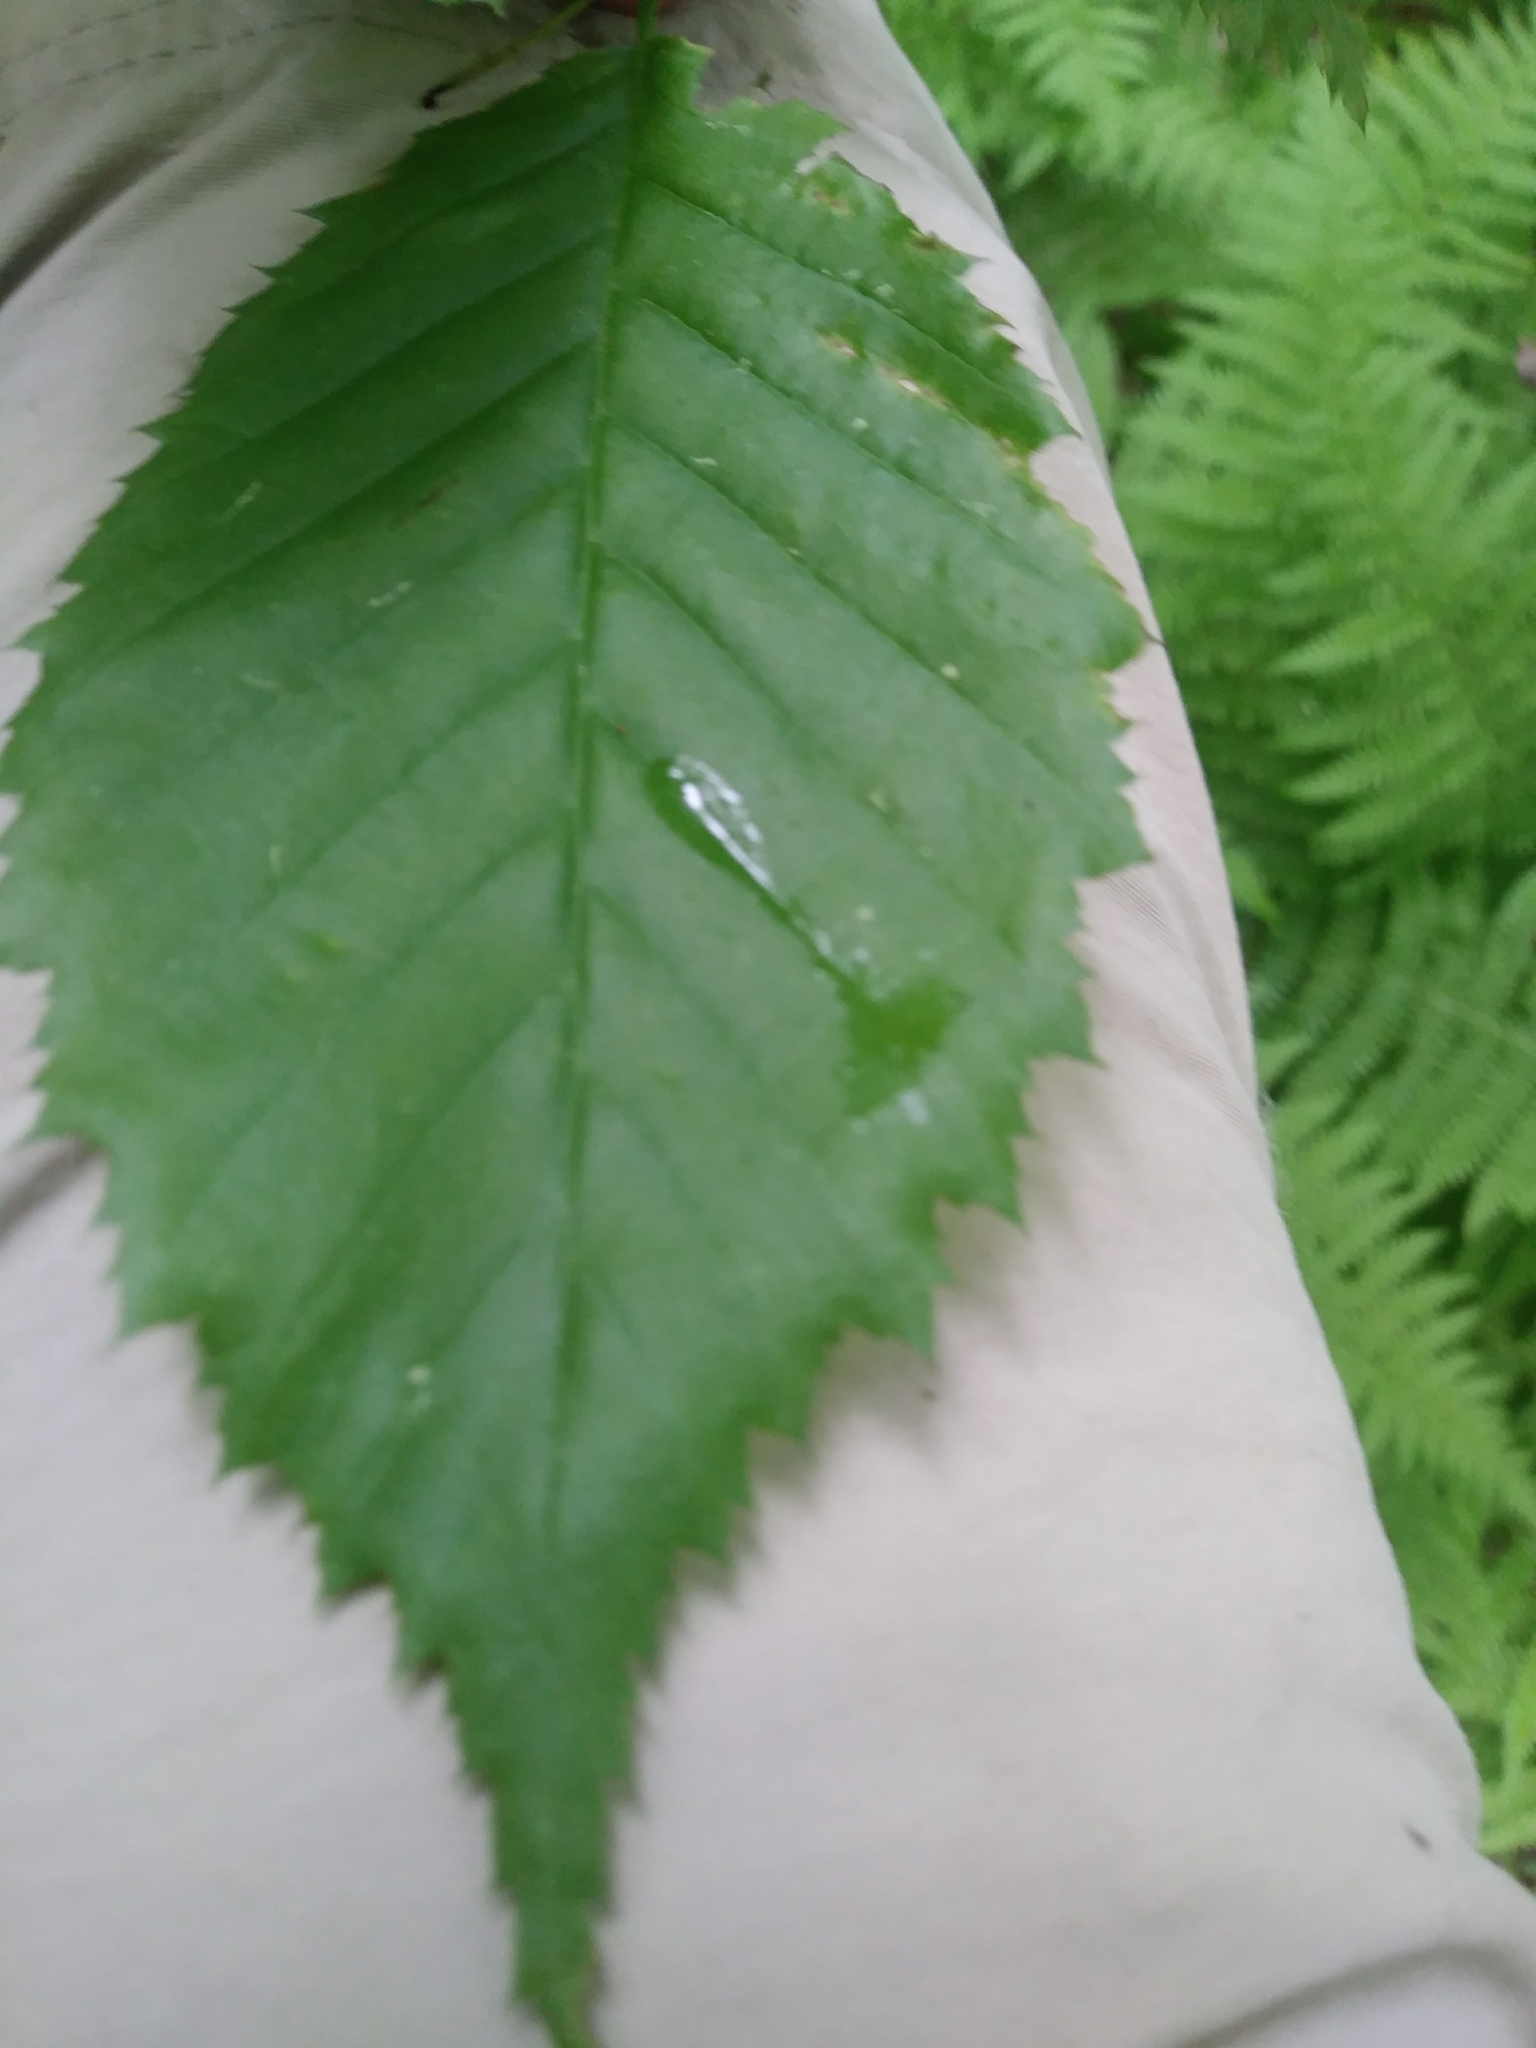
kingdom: Plantae
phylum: Tracheophyta
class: Magnoliopsida
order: Fagales
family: Betulaceae
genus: Carpinus
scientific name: Carpinus caroliniana
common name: American hornbeam
